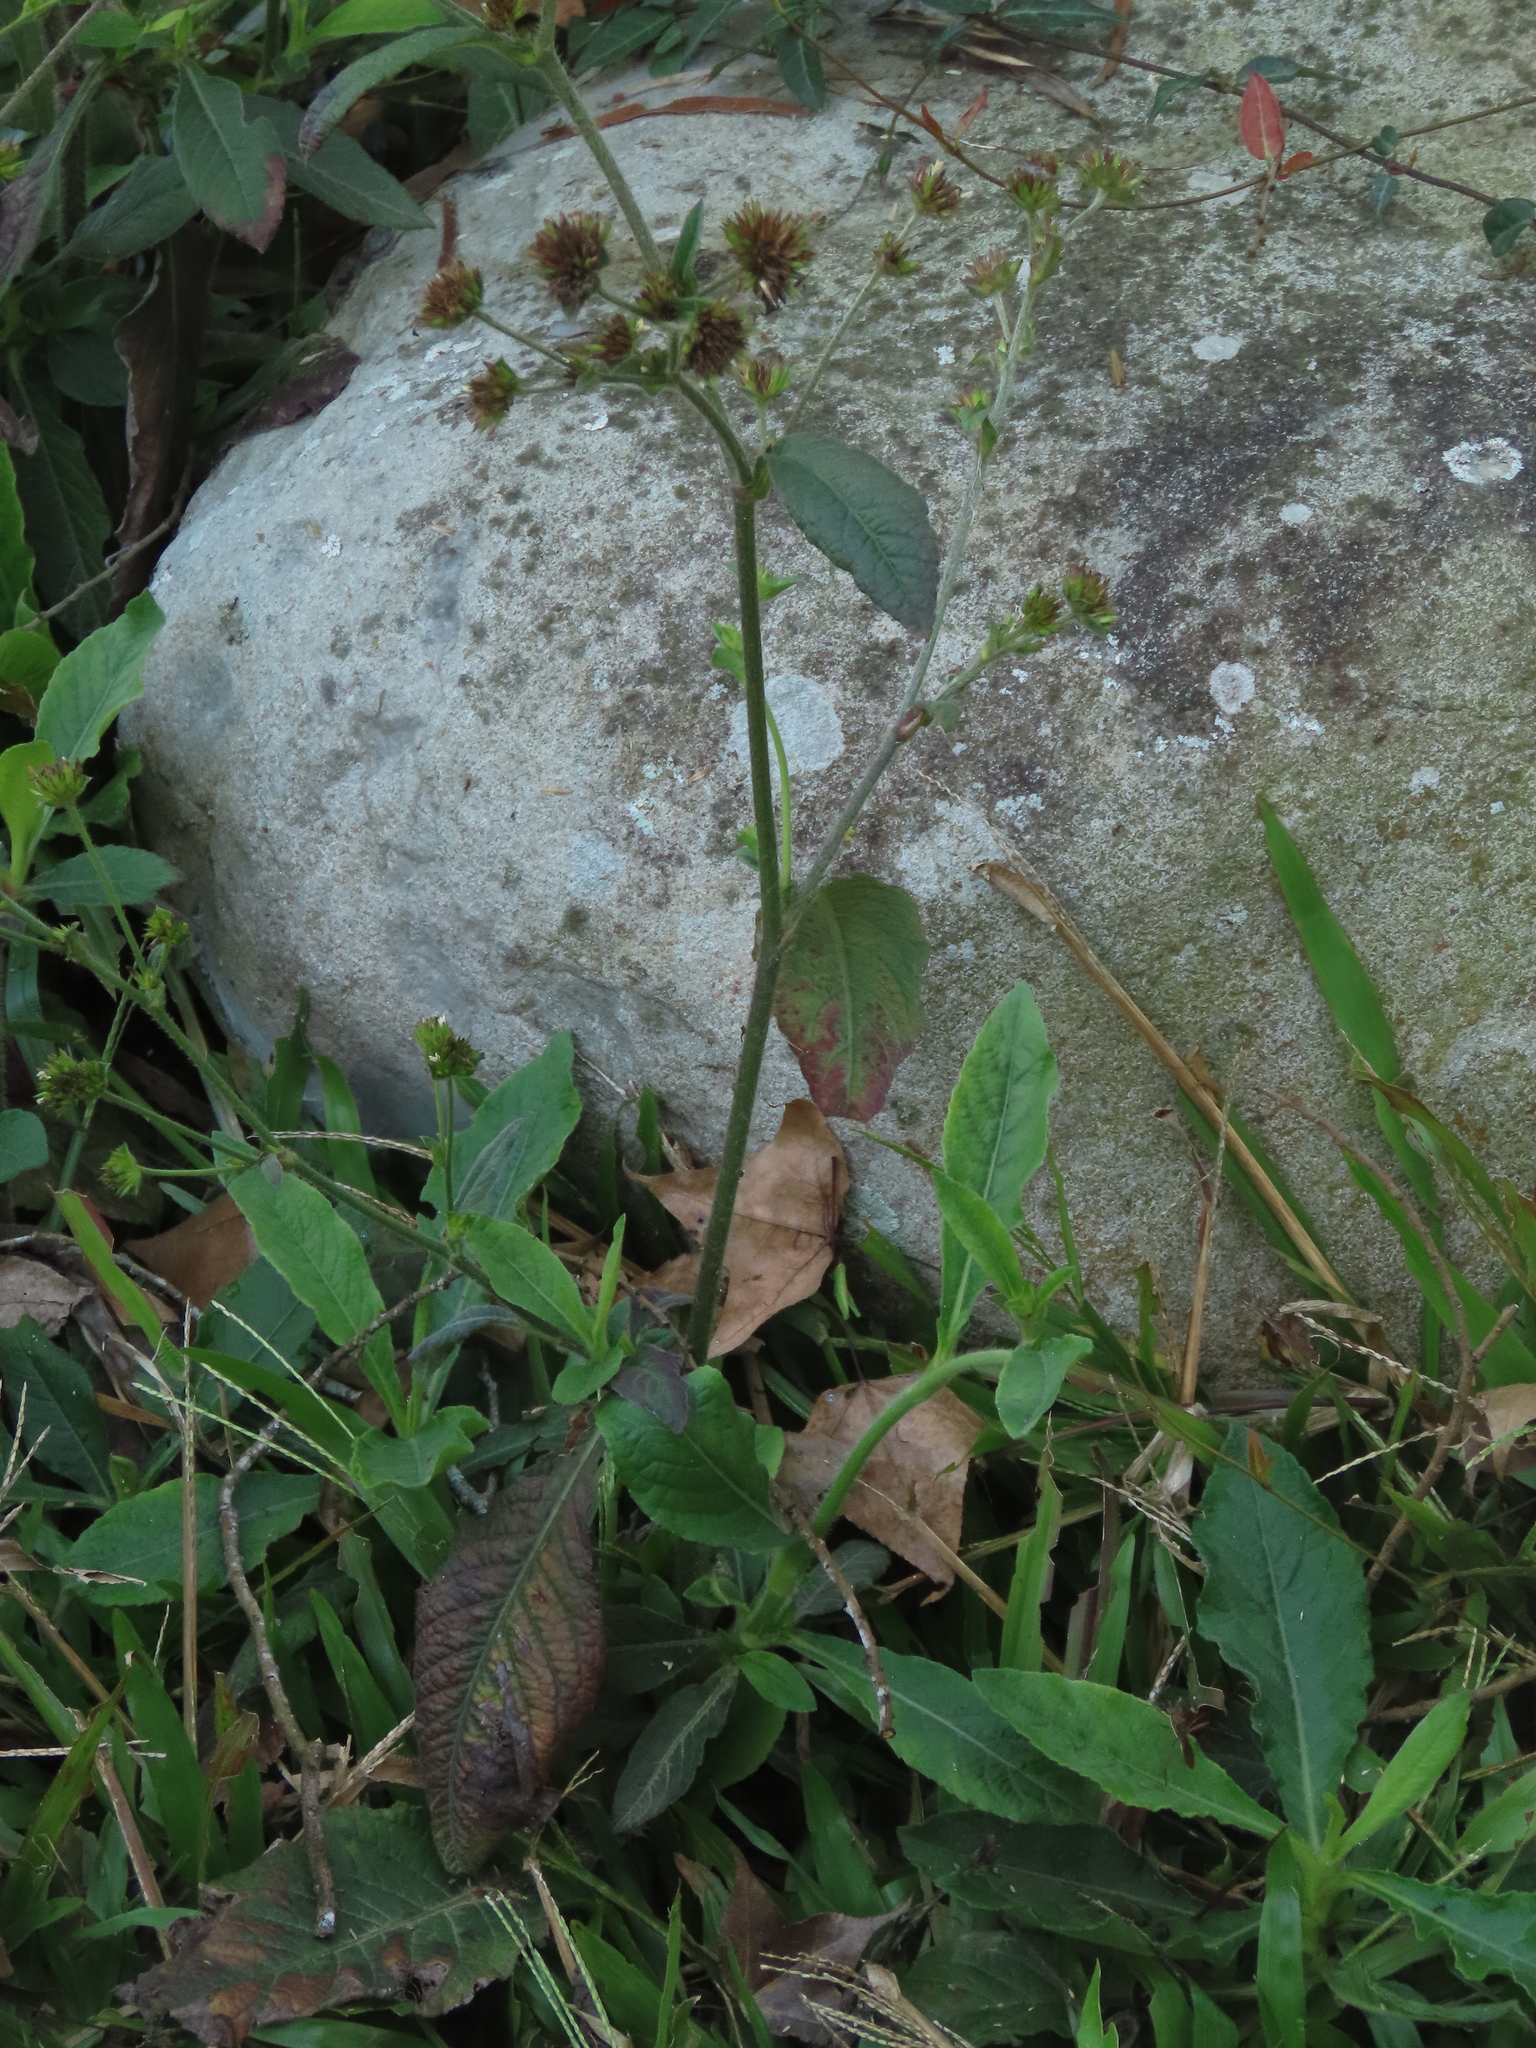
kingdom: Plantae
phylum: Tracheophyta
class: Magnoliopsida
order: Asterales
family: Asteraceae
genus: Elephantopus
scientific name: Elephantopus mollis
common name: Soft elephantsfoot
